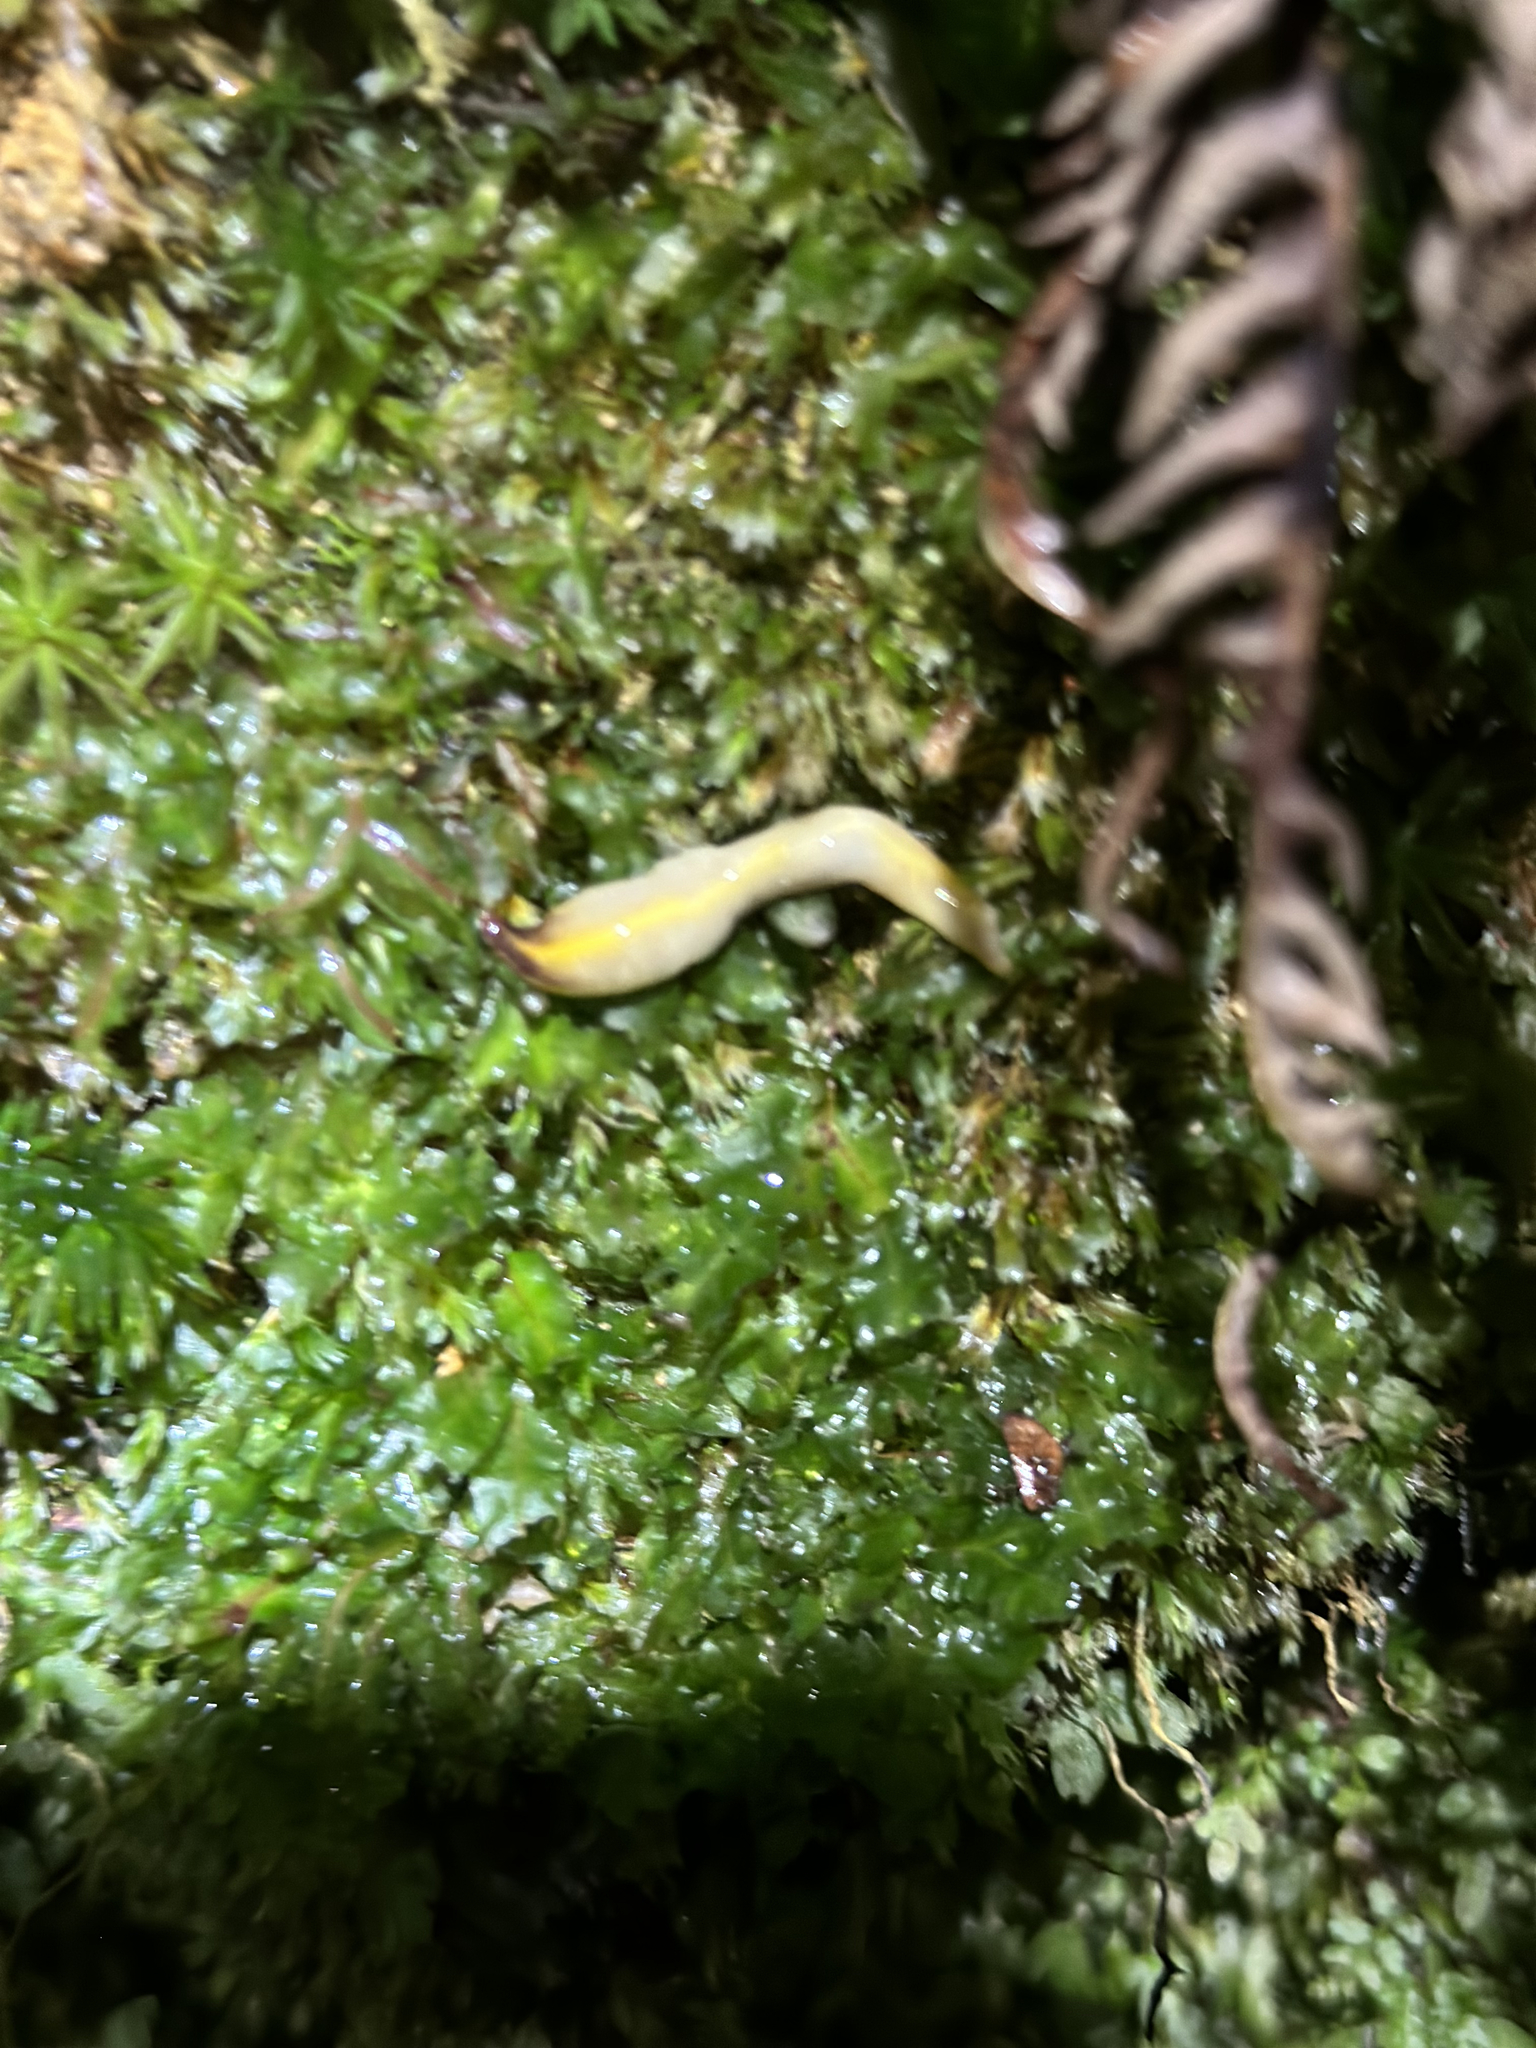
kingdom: Animalia
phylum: Platyhelminthes
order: Tricladida
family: Geoplanidae
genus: Australopacifica
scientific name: Australopacifica warragulensis
